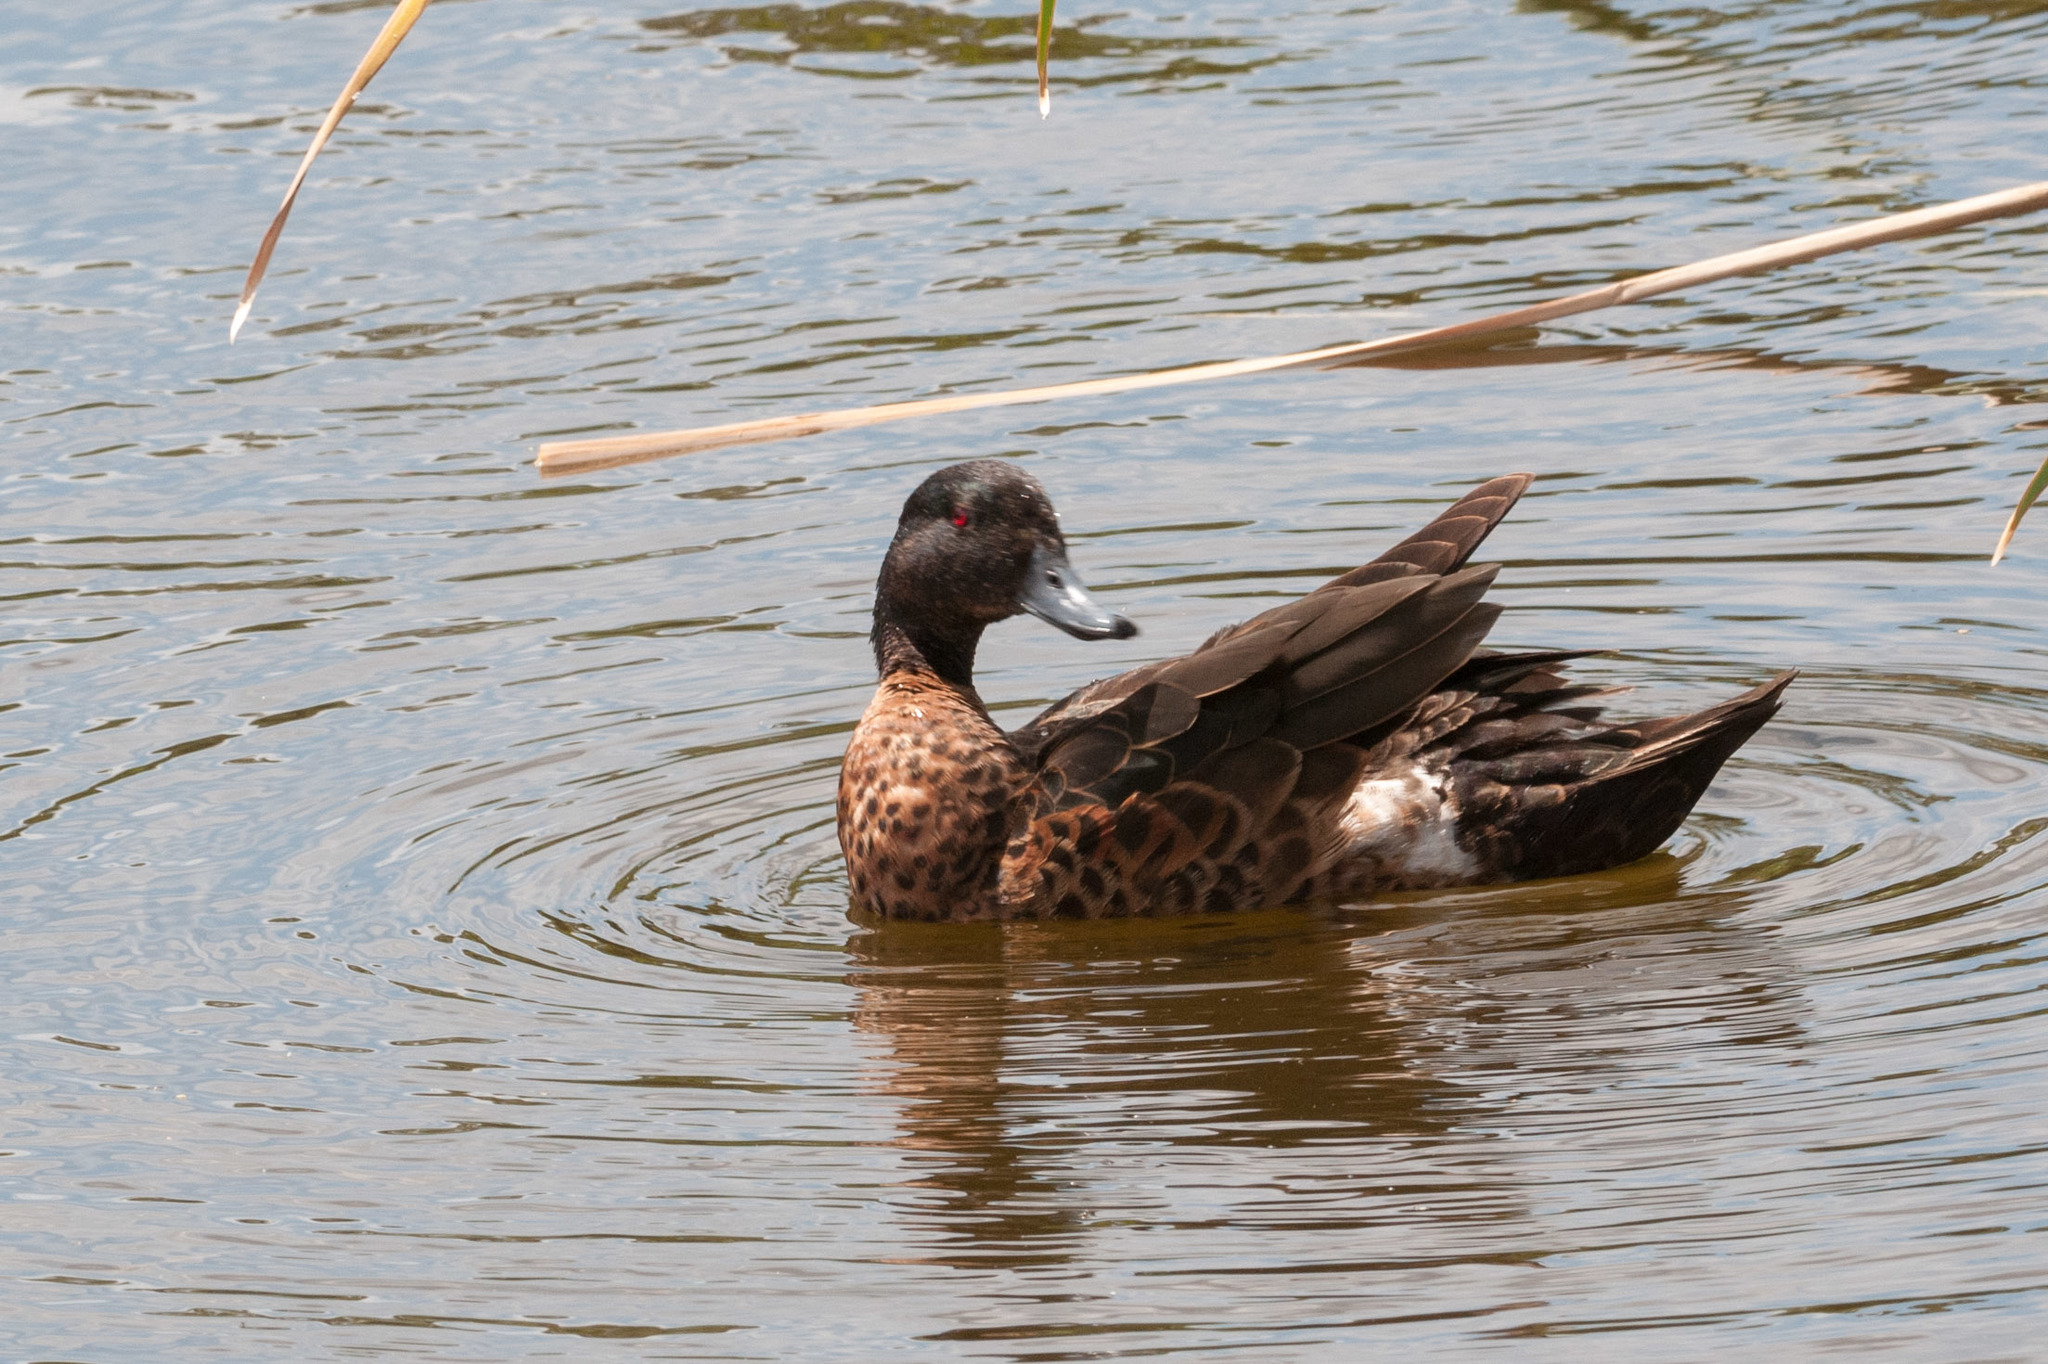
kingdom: Animalia
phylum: Chordata
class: Aves
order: Anseriformes
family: Anatidae
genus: Anas
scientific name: Anas castanea
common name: Chestnut teal
